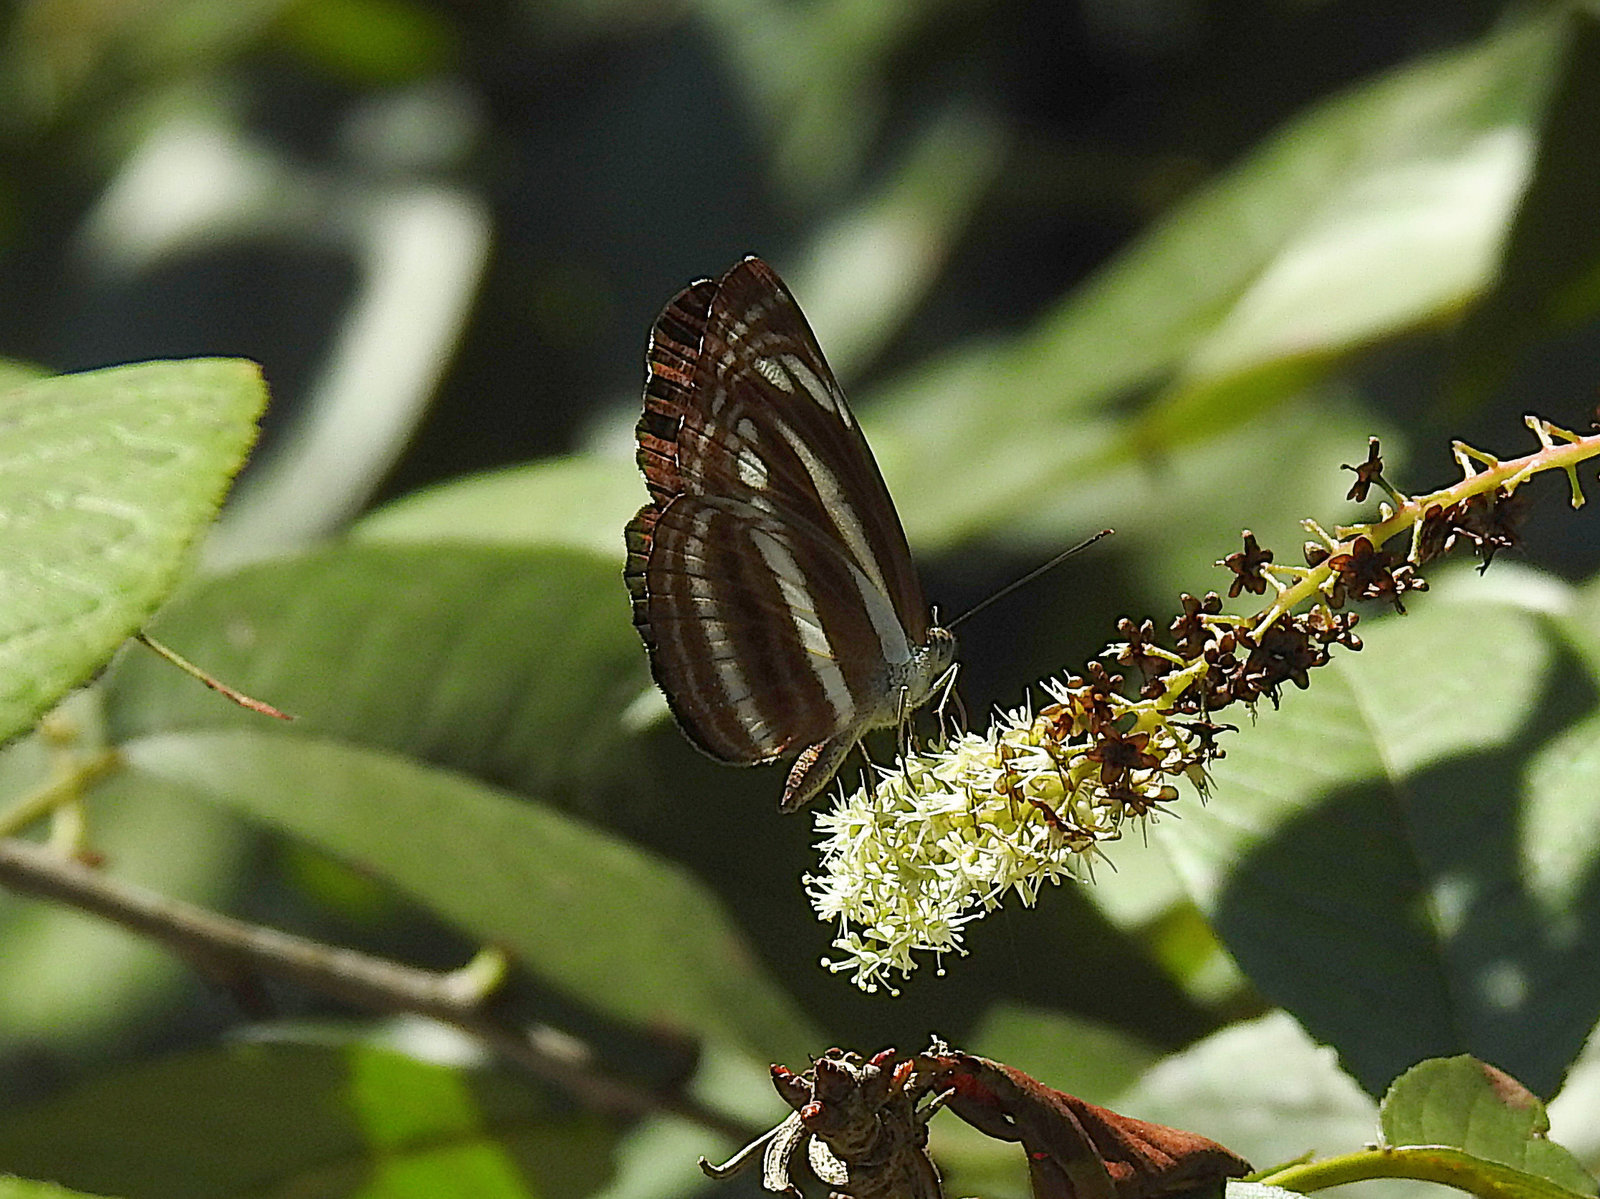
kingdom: Animalia
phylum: Arthropoda
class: Insecta
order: Lepidoptera
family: Nymphalidae
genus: Neptis
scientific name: Neptis cartica
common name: Plain sailer
